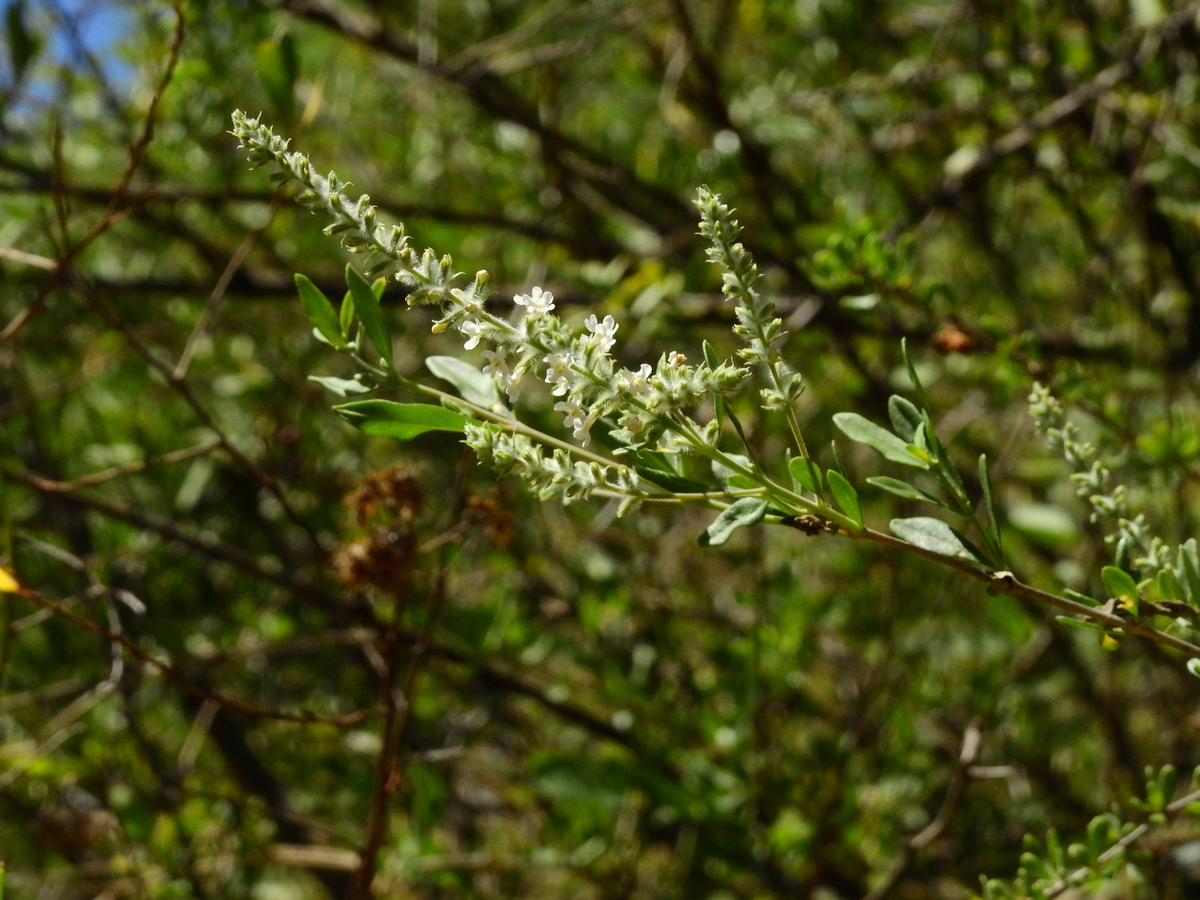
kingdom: Plantae
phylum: Tracheophyta
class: Magnoliopsida
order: Lamiales
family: Verbenaceae
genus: Aloysia
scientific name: Aloysia gratissima
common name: Common bee-brush
